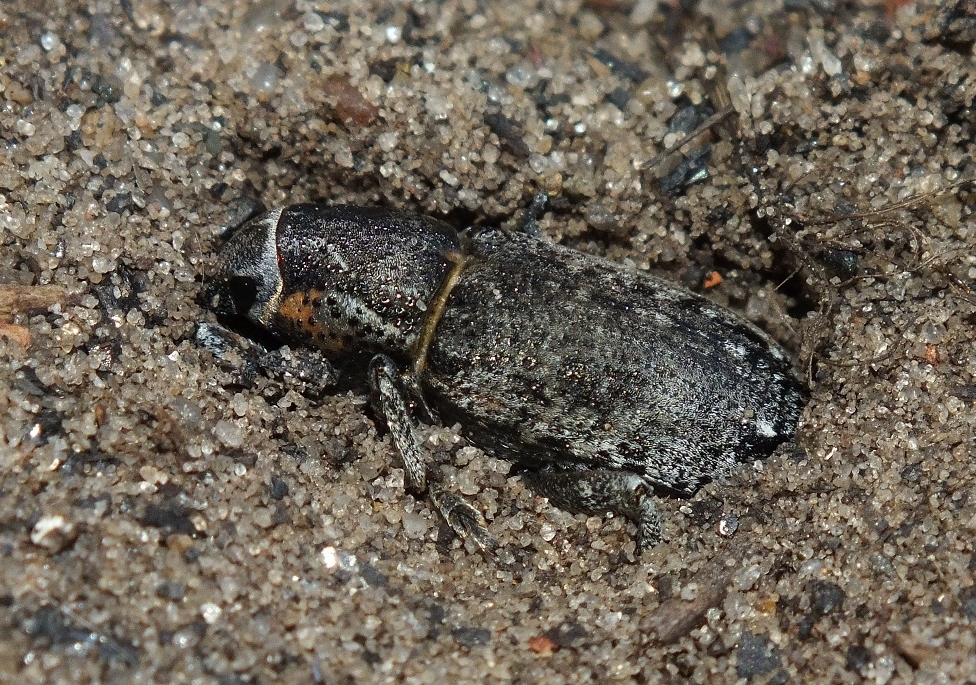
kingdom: Animalia
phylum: Arthropoda
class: Insecta
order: Coleoptera
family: Curculionidae
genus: Maximus
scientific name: Maximus strabus
